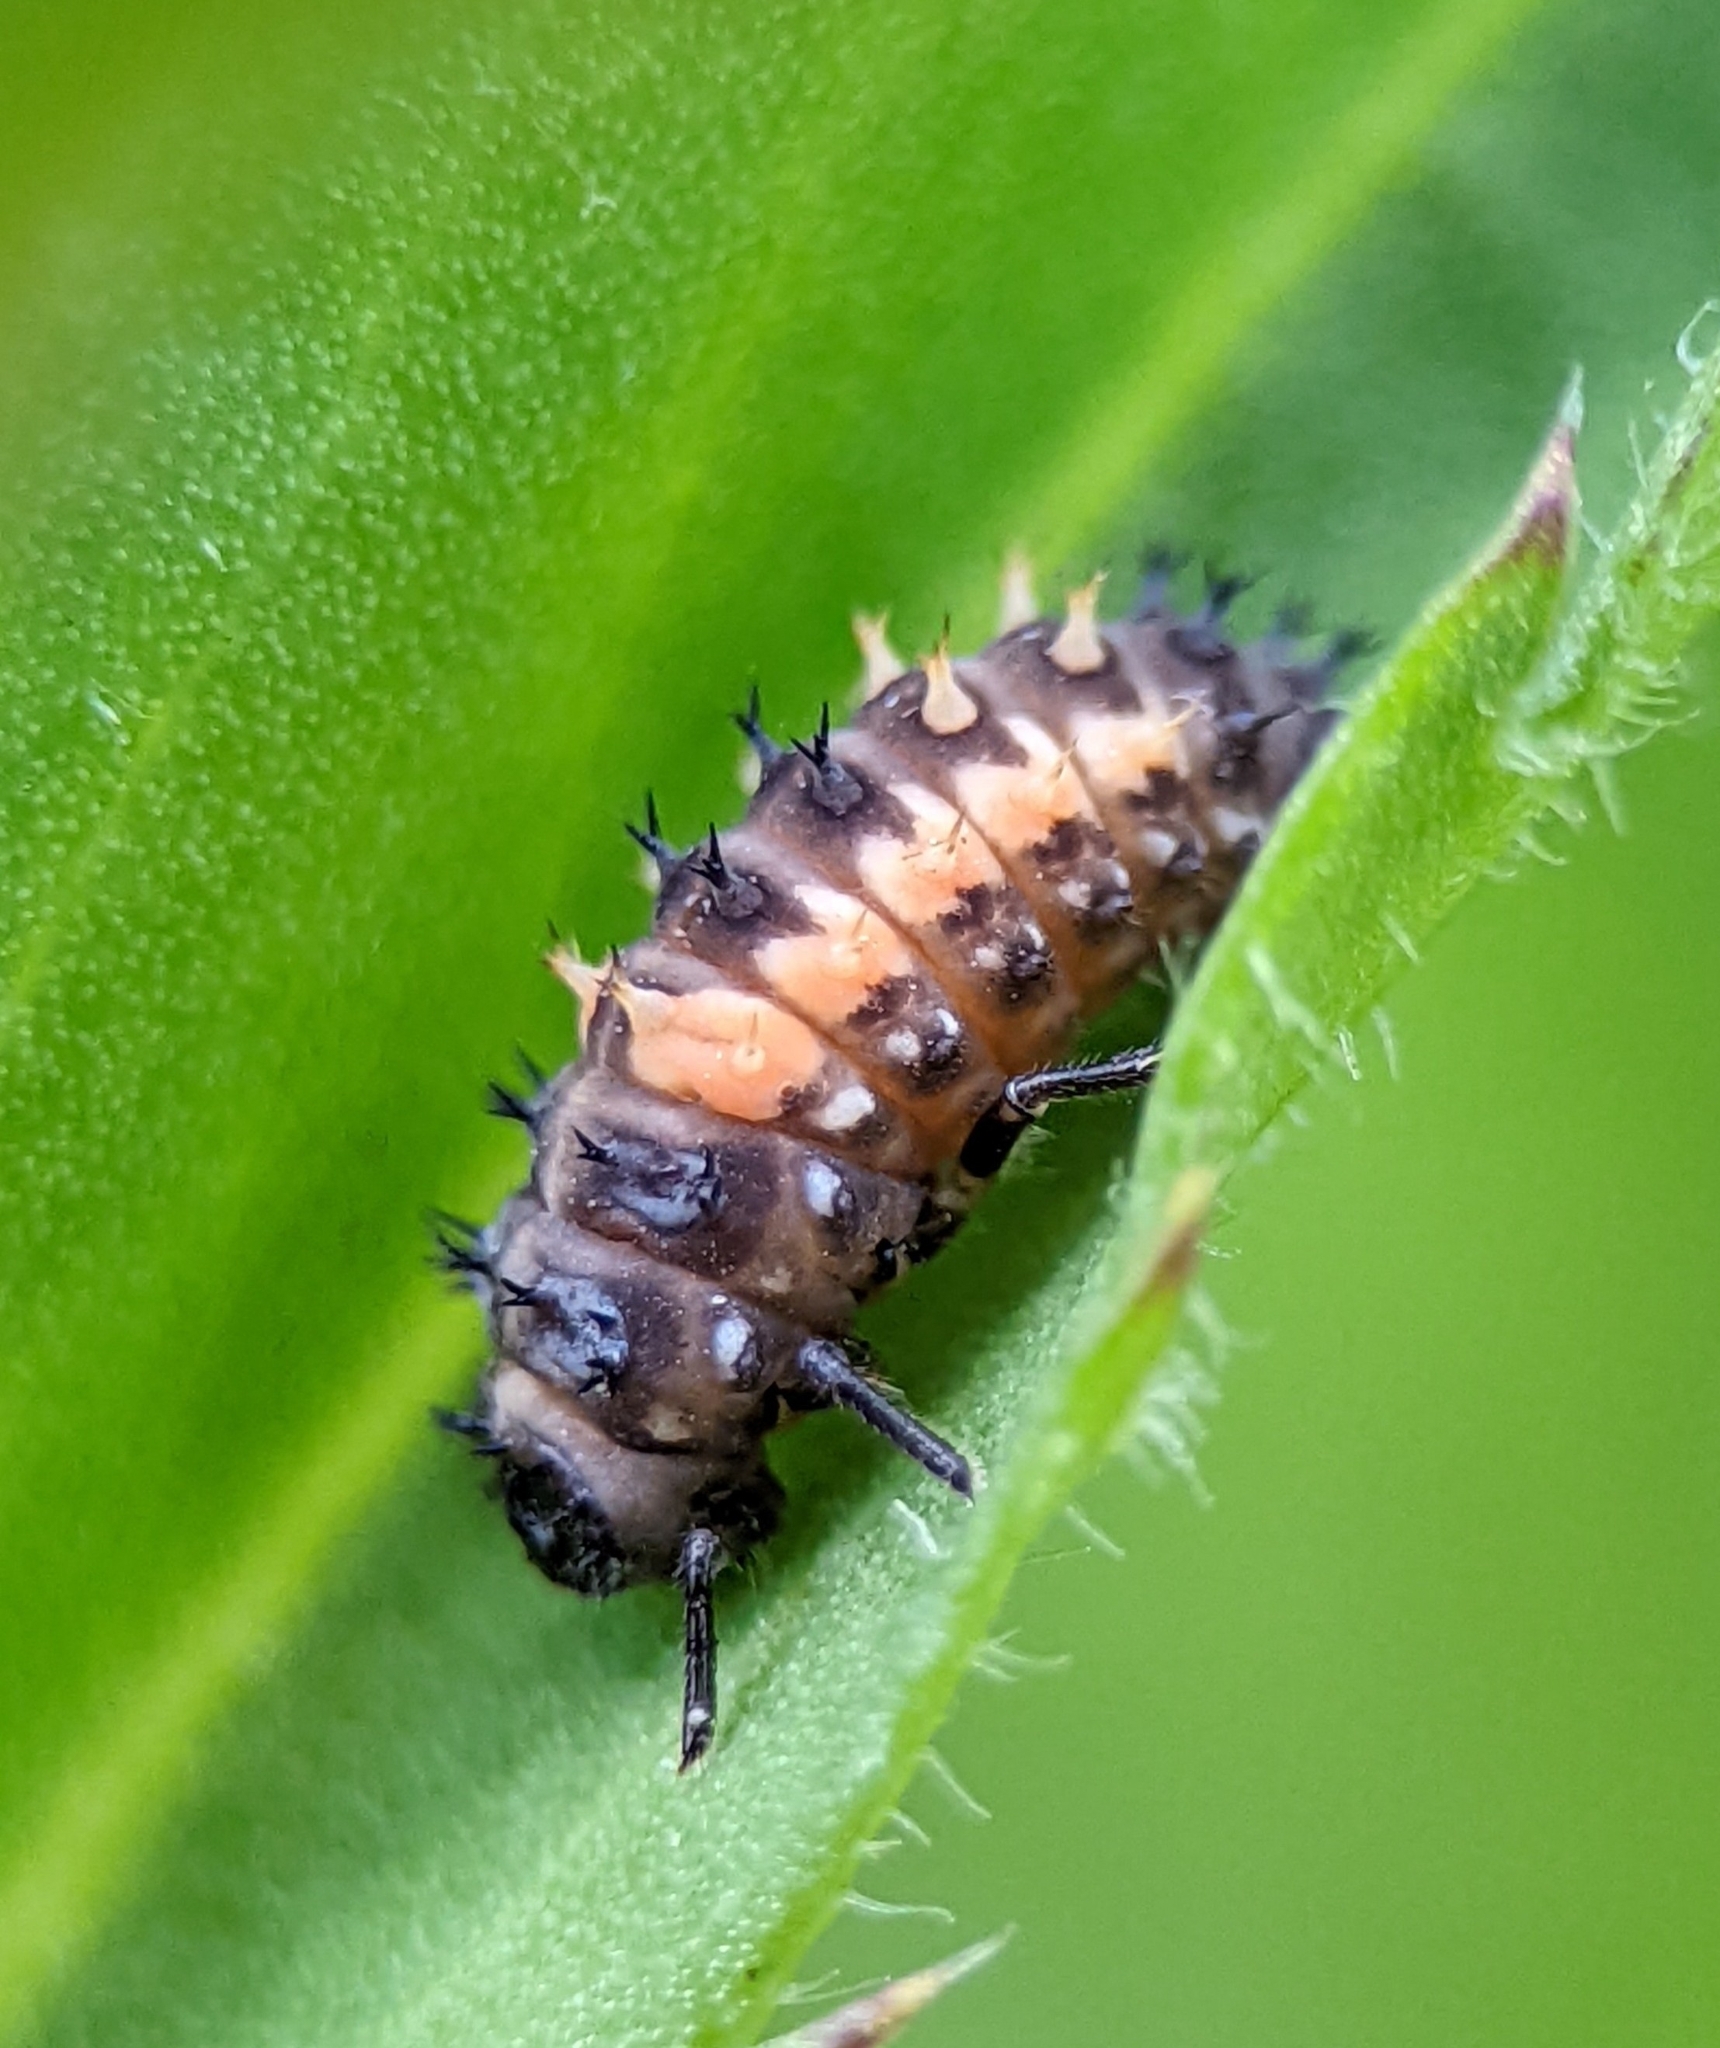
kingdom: Animalia
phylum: Arthropoda
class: Insecta
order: Coleoptera
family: Coccinellidae
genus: Harmonia
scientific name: Harmonia axyridis
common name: Harlequin ladybird
